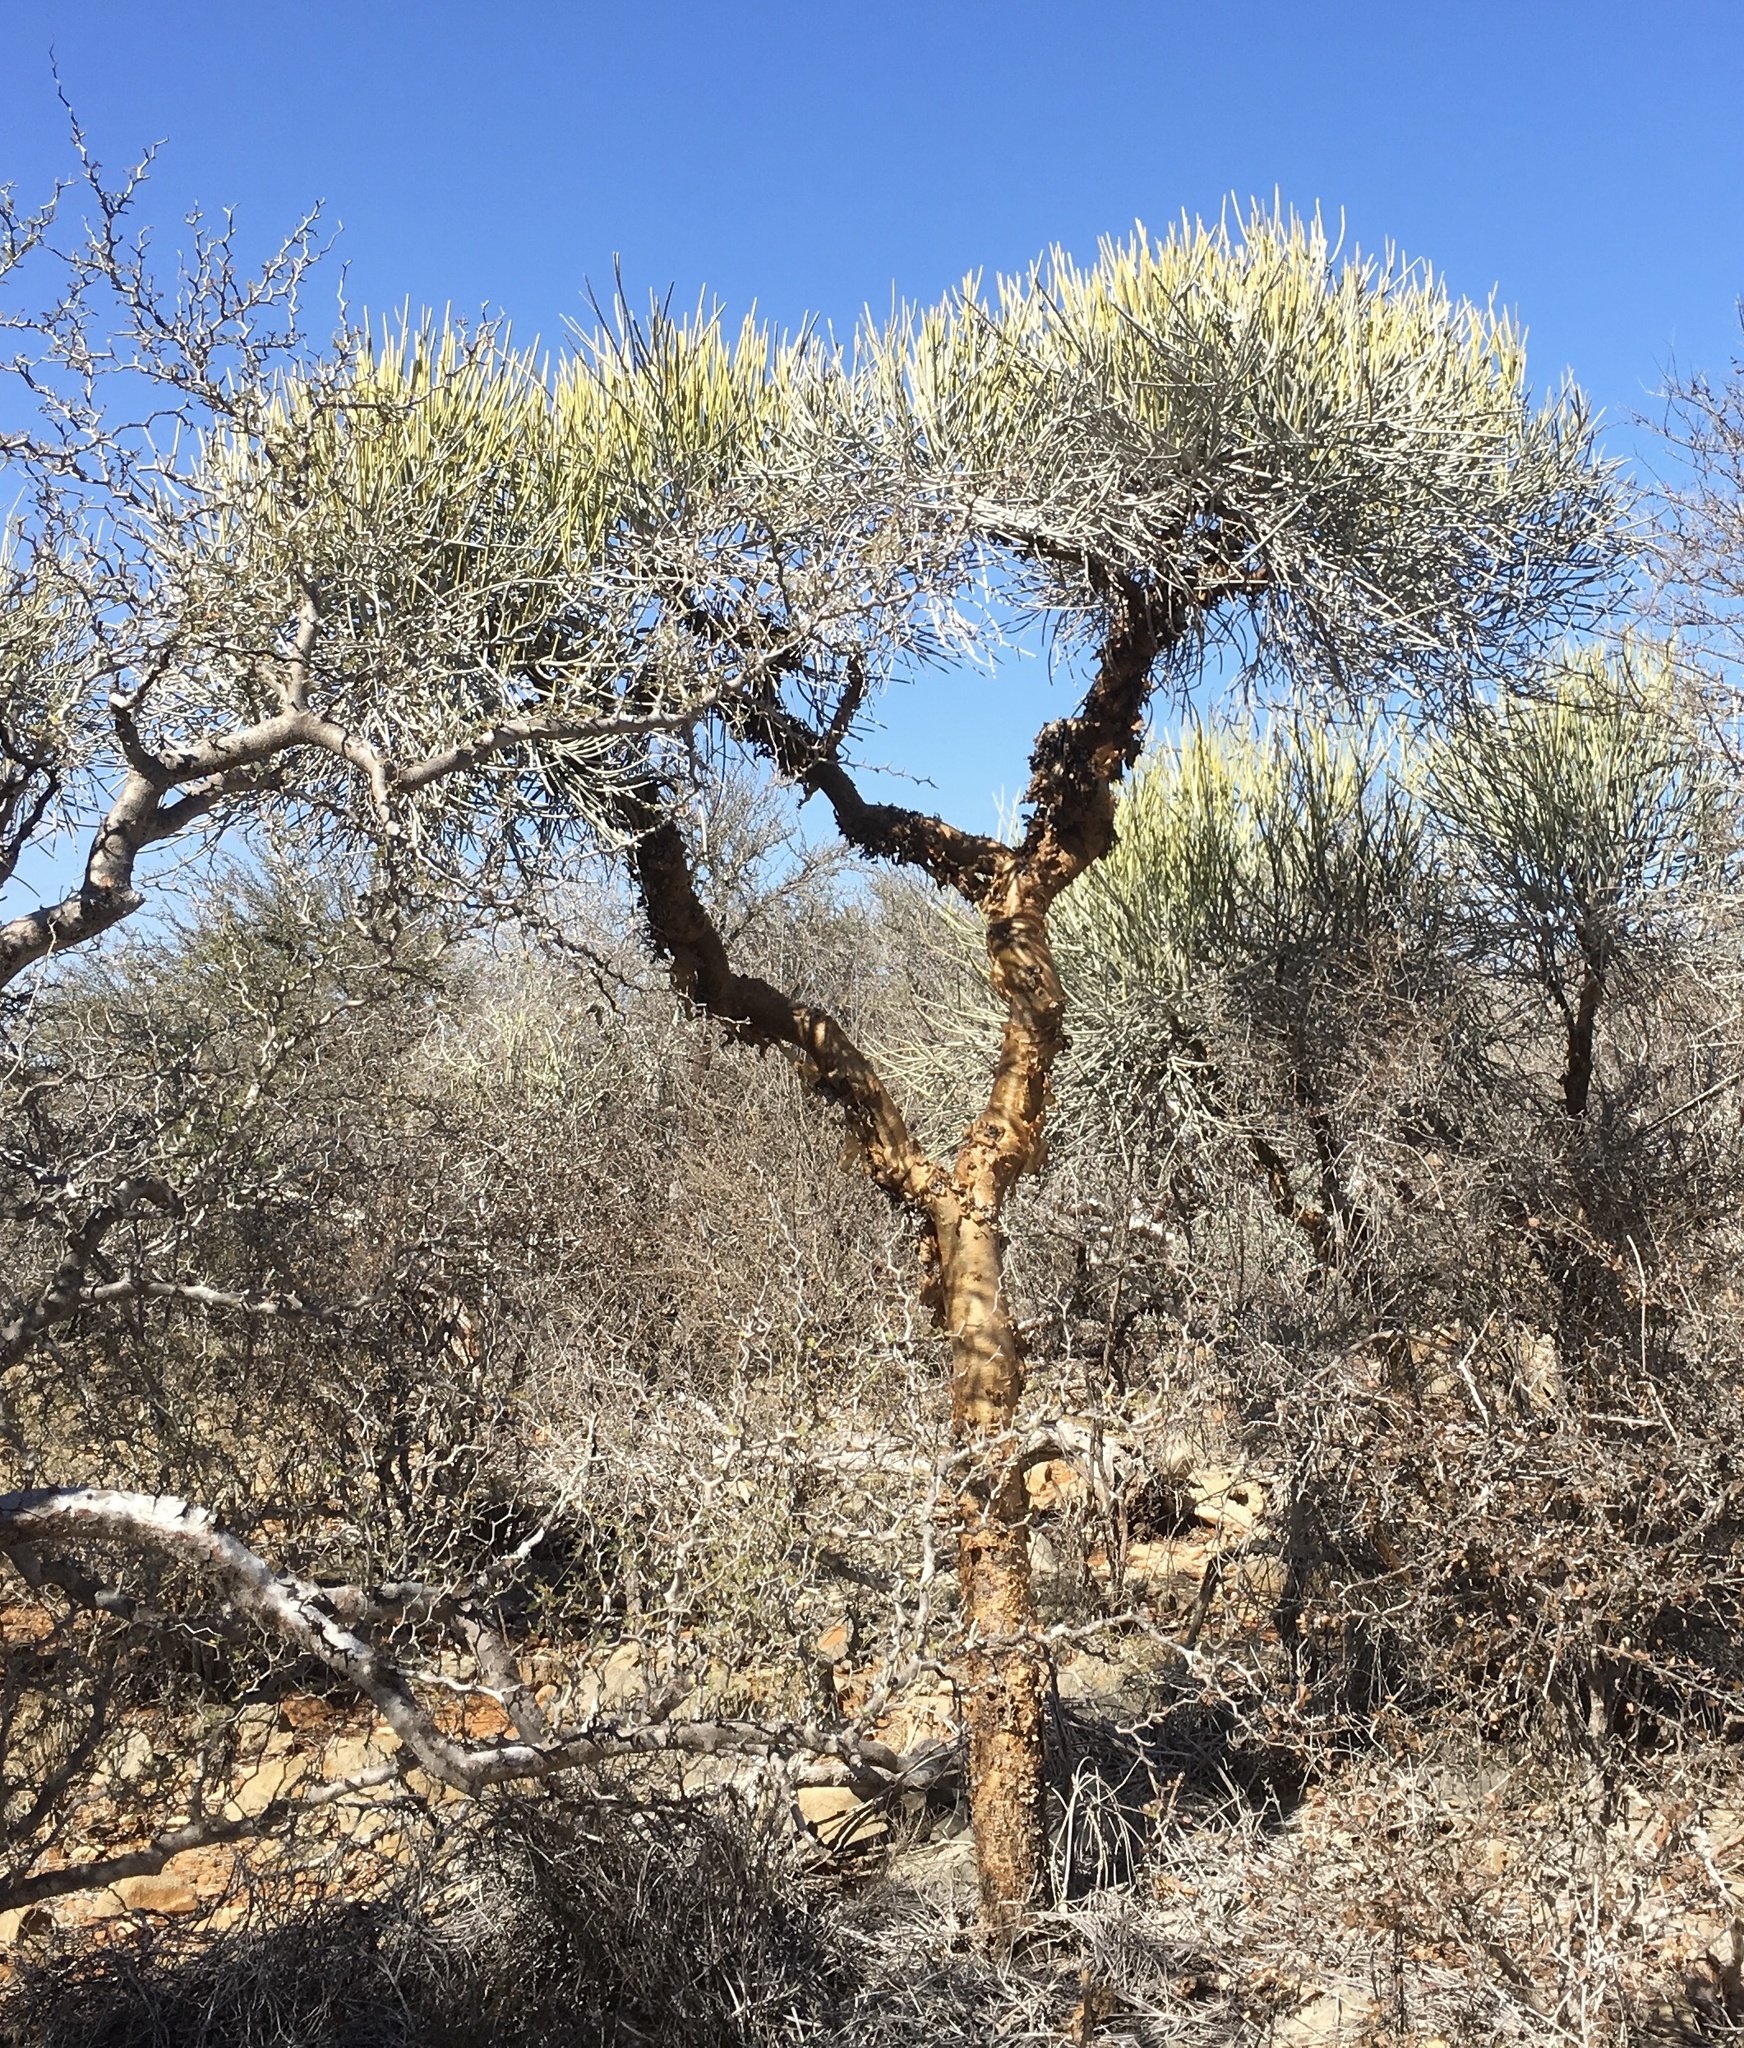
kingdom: Plantae
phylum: Tracheophyta
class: Magnoliopsida
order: Malpighiales
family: Euphorbiaceae
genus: Euphorbia
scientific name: Euphorbia plagiantha
